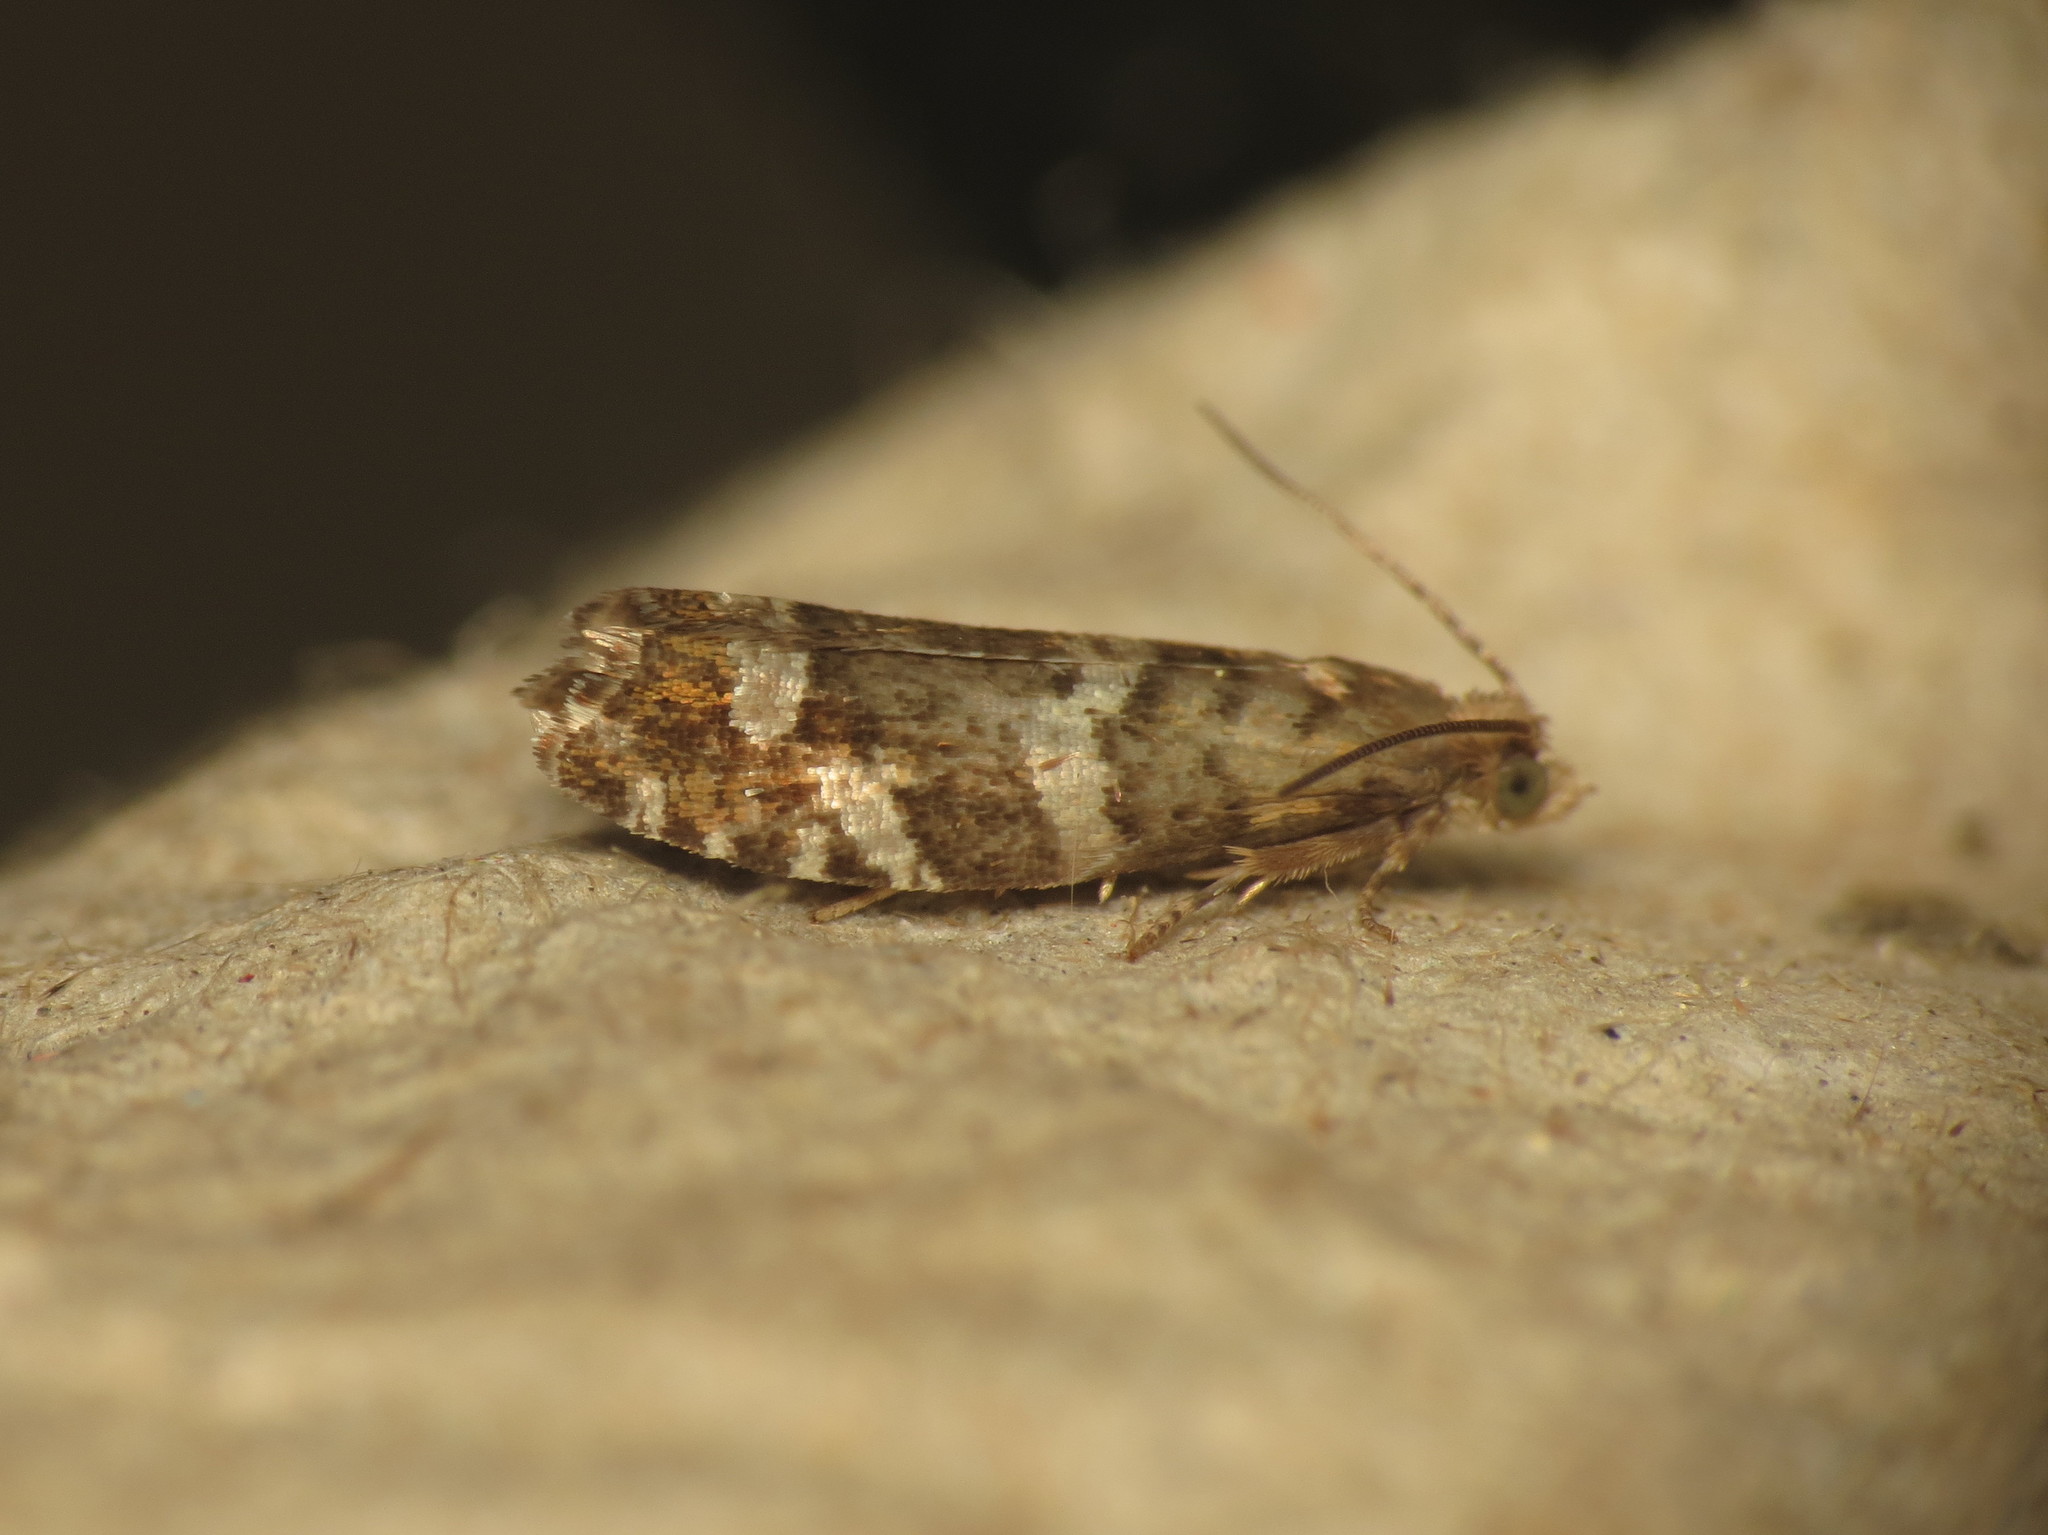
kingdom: Animalia
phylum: Arthropoda
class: Insecta
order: Lepidoptera
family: Tortricidae
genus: Epinotia
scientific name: Epinotia fraternana
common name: Silver-barred bell
